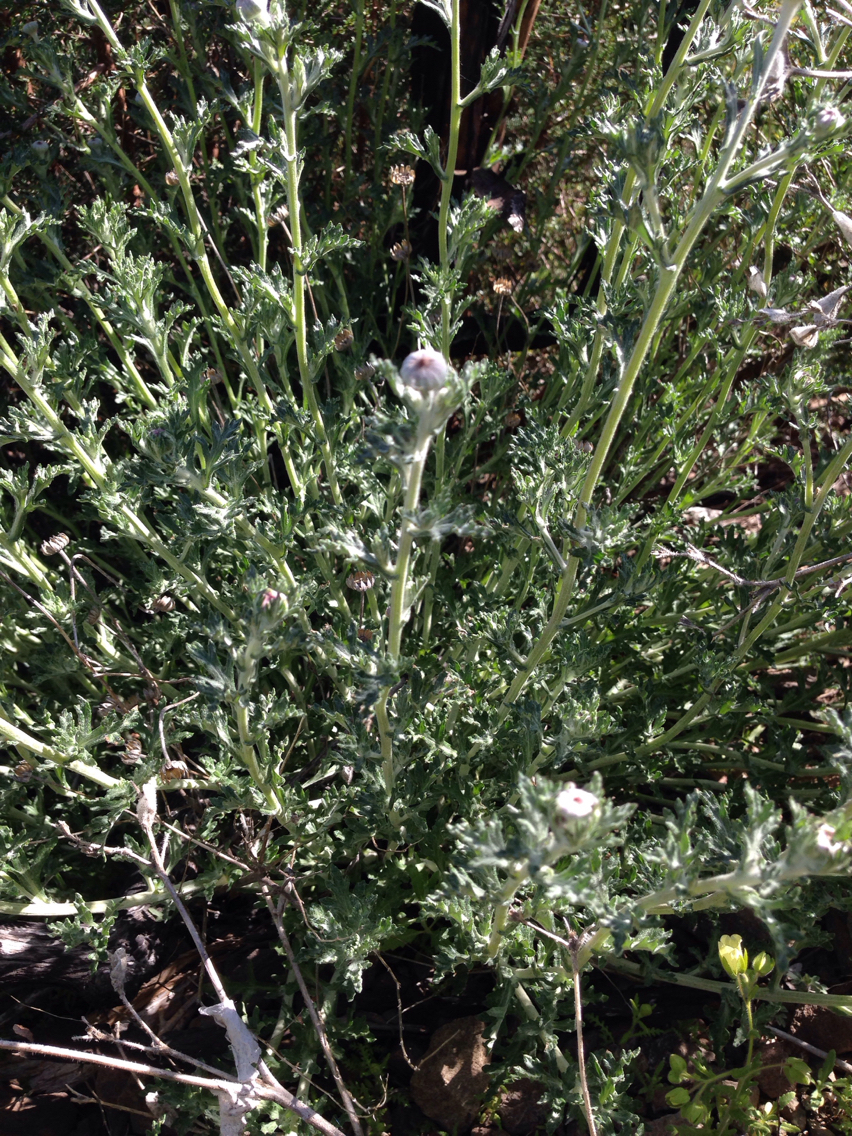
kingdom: Plantae
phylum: Tracheophyta
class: Magnoliopsida
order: Asterales
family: Asteraceae
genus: Eriophyllum
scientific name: Eriophyllum lanatum
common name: Common woolly-sunflower
